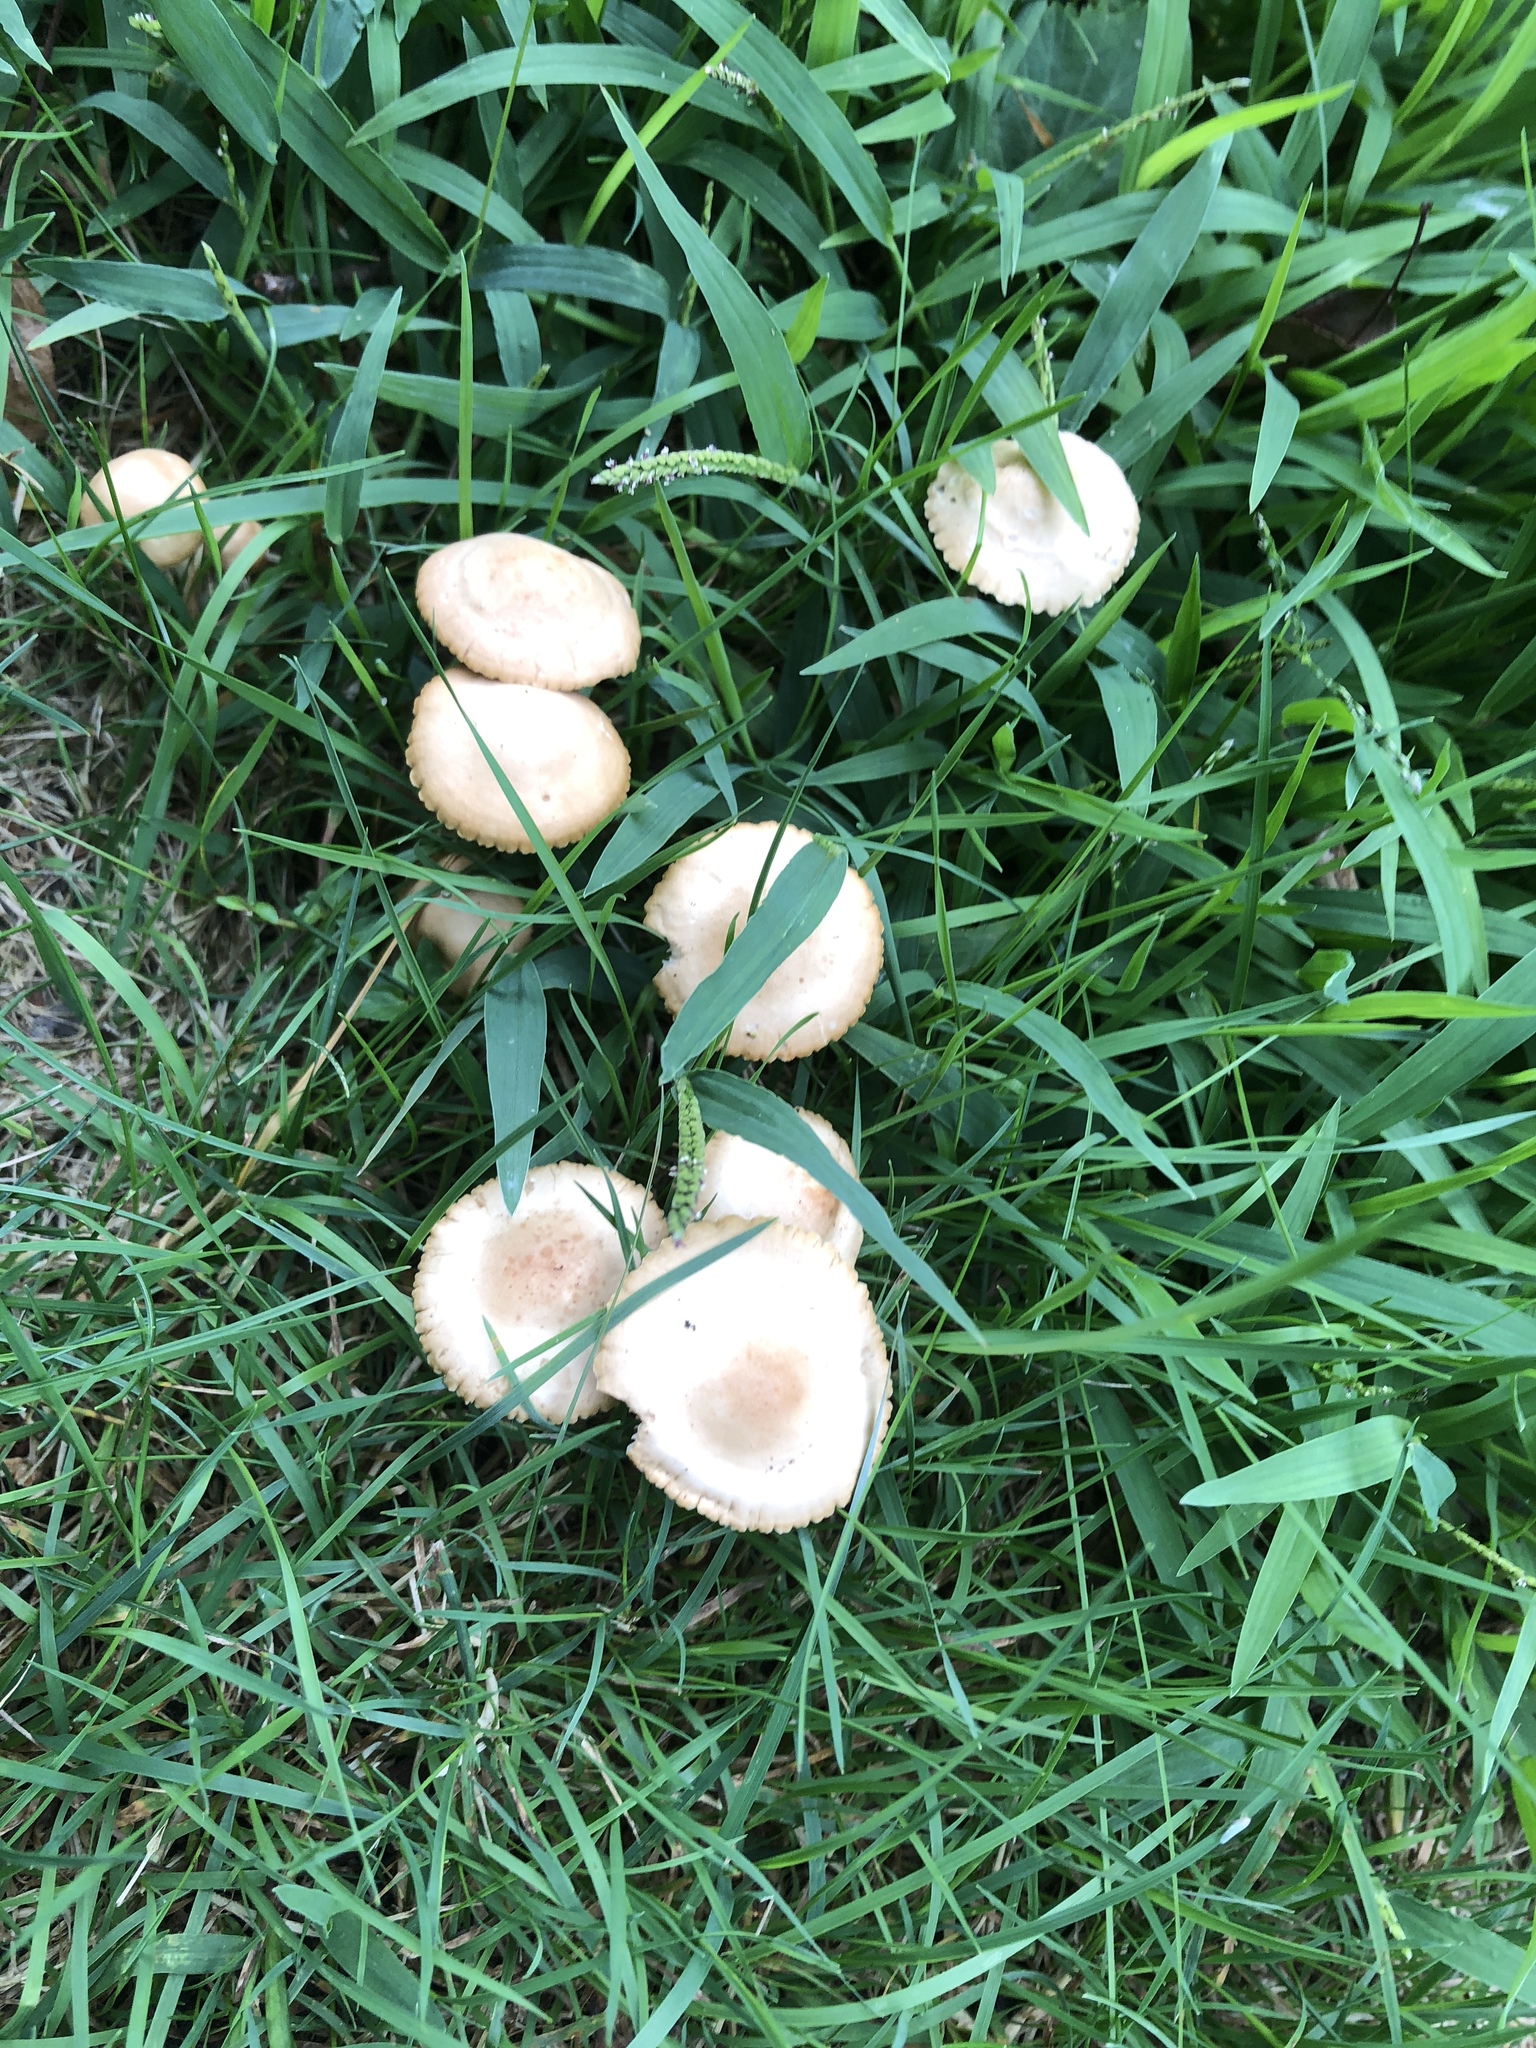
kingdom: Fungi
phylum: Basidiomycota
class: Agaricomycetes
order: Agaricales
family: Marasmiaceae
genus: Marasmius
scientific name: Marasmius oreades
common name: Fairy ring champignon
